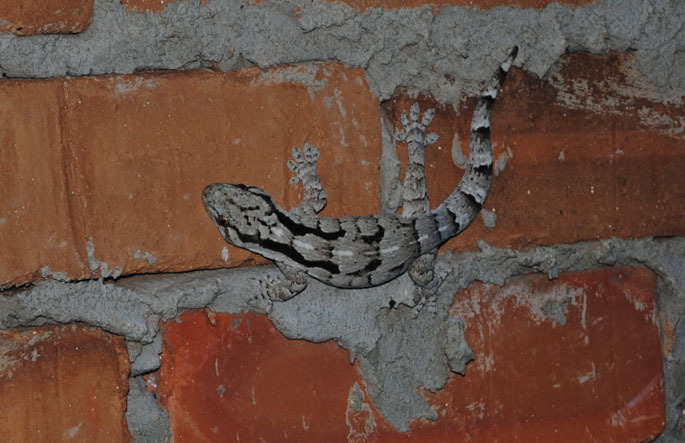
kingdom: Animalia
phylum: Chordata
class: Squamata
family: Gekkonidae
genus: Homopholis
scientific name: Homopholis arnoldi
